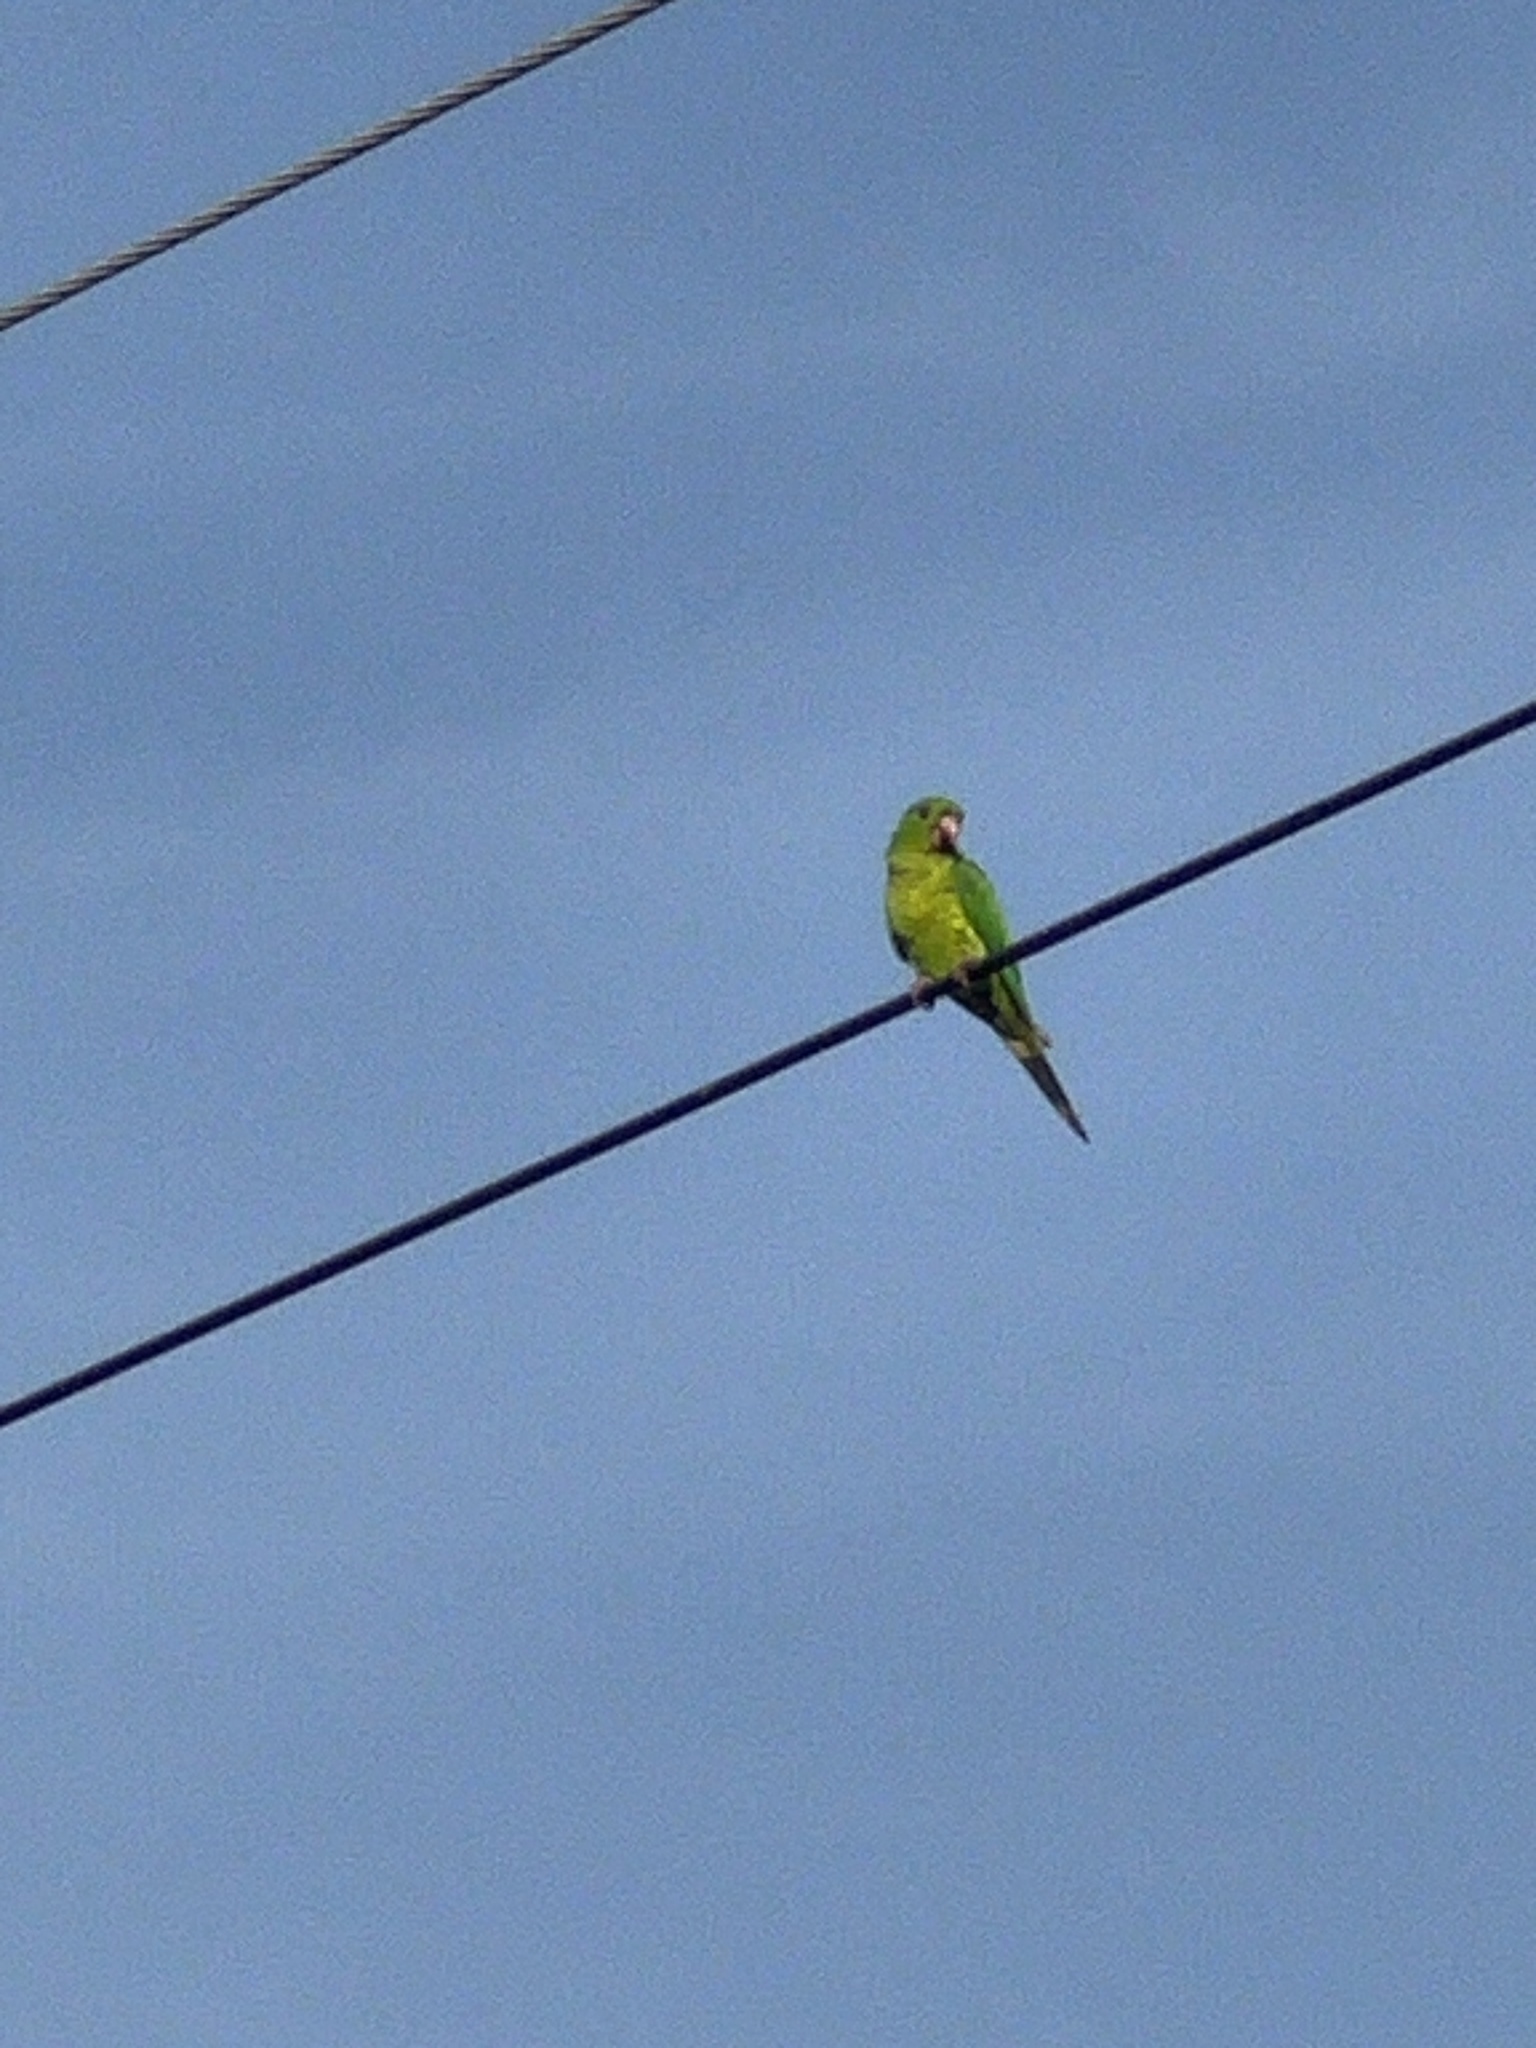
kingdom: Animalia
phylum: Chordata
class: Aves
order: Psittaciformes
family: Psittacidae
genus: Aratinga
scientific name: Aratinga holochlora
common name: Green parakeet
